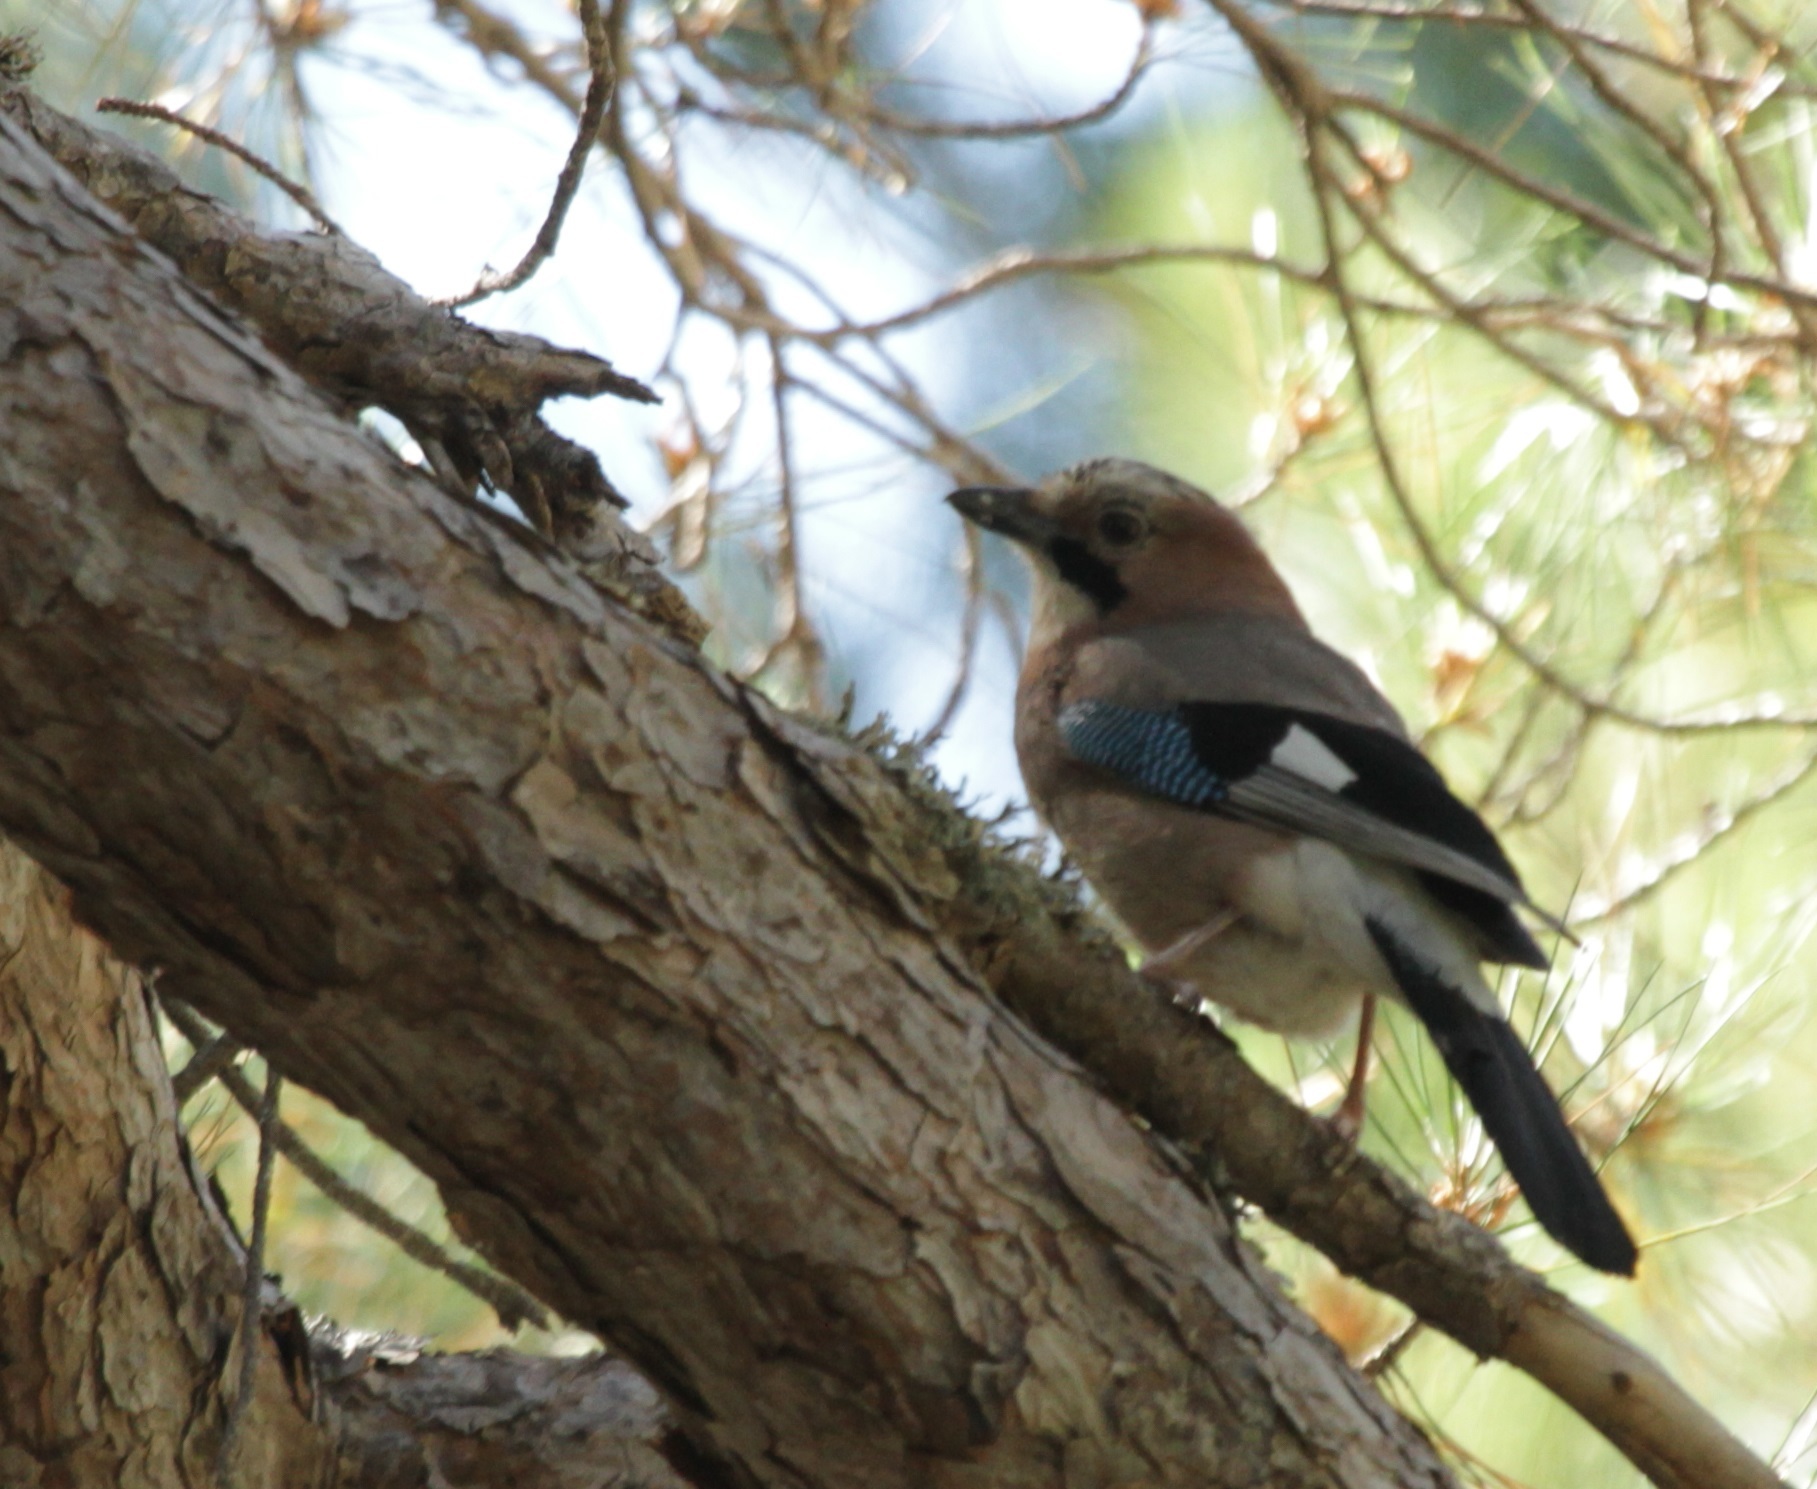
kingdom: Animalia
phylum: Chordata
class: Aves
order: Passeriformes
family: Corvidae
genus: Garrulus
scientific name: Garrulus glandarius
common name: Eurasian jay
